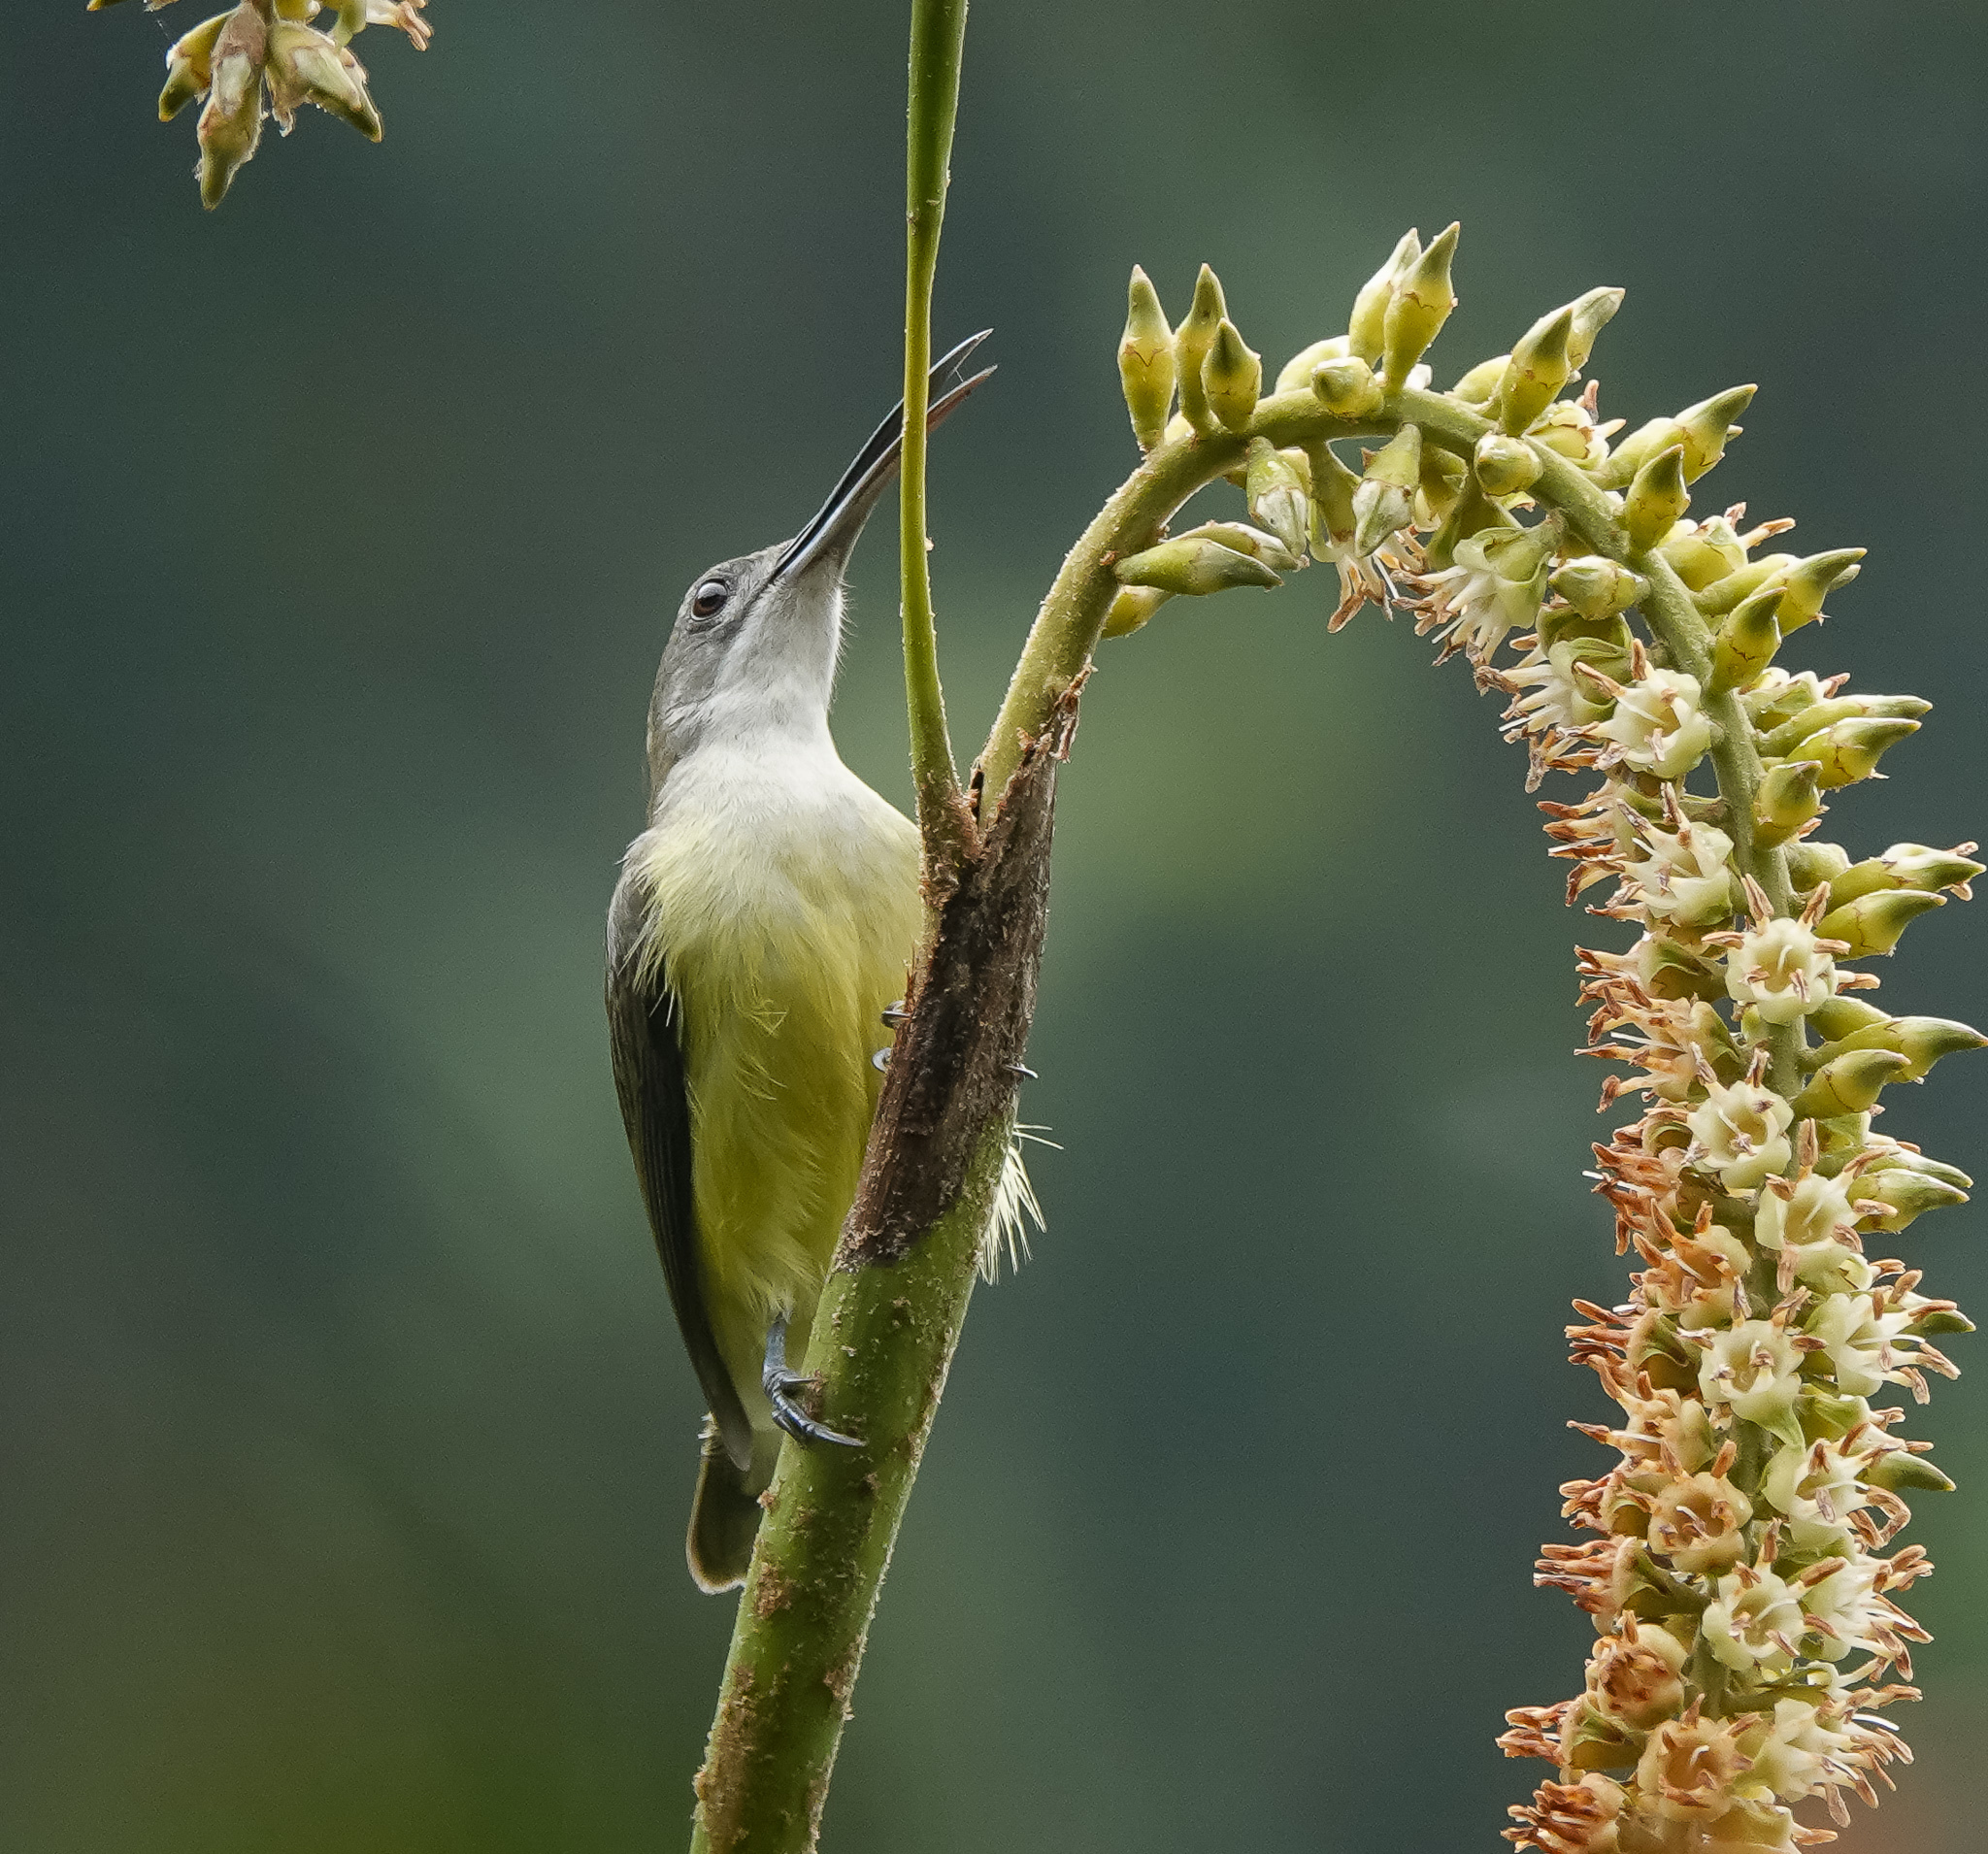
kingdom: Animalia
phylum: Chordata
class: Aves
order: Passeriformes
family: Nectariniidae
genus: Arachnothera
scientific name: Arachnothera longirostra
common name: Little spiderhunter
